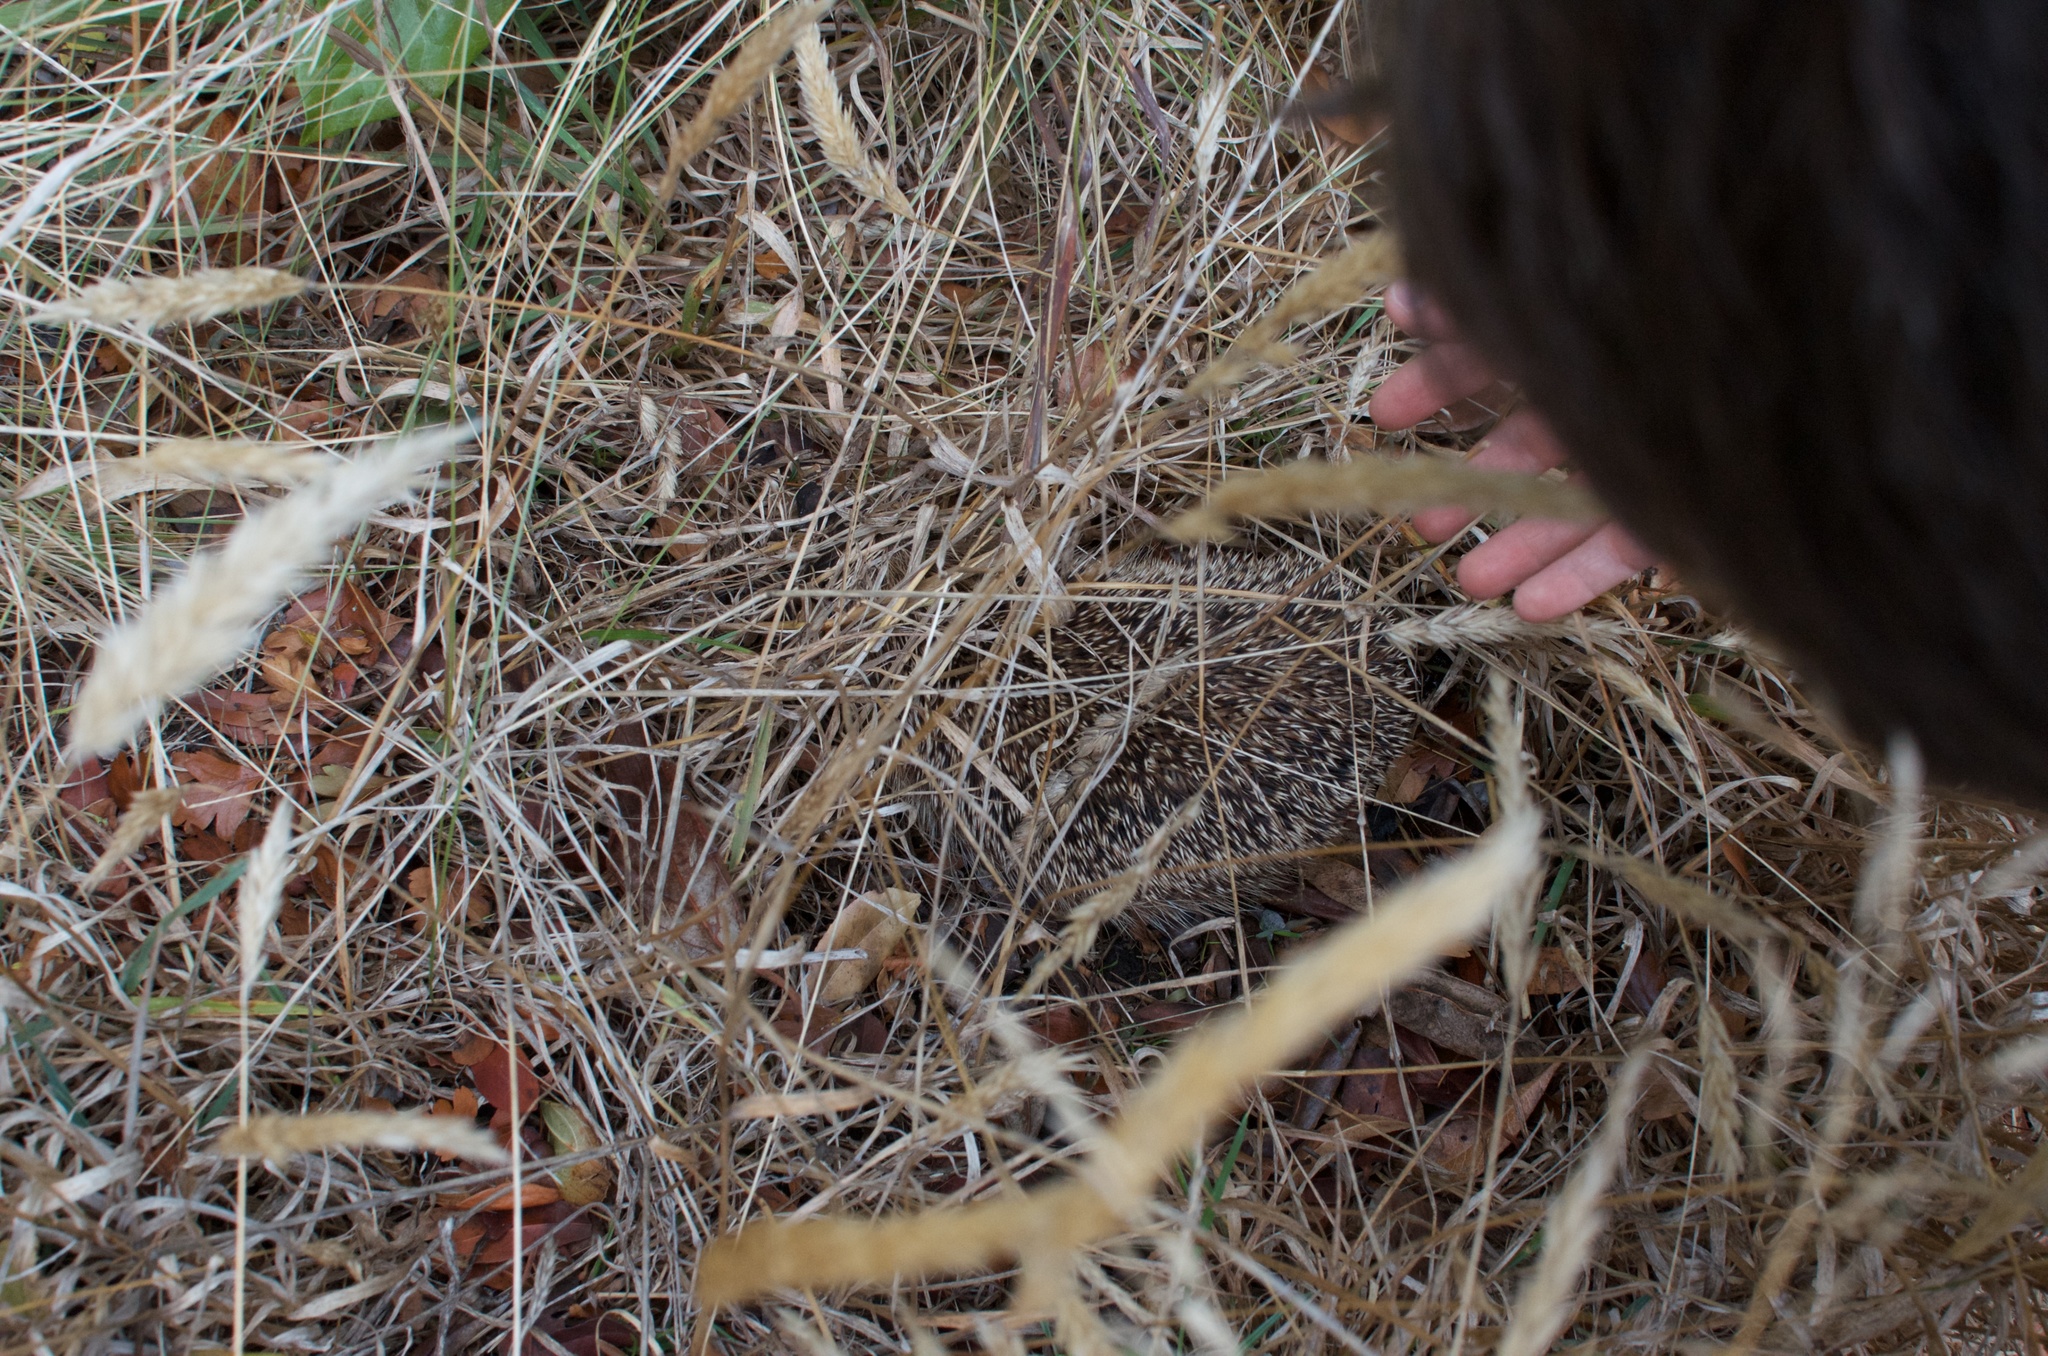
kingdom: Animalia
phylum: Chordata
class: Mammalia
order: Erinaceomorpha
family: Erinaceidae
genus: Erinaceus
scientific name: Erinaceus europaeus
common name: West european hedgehog
